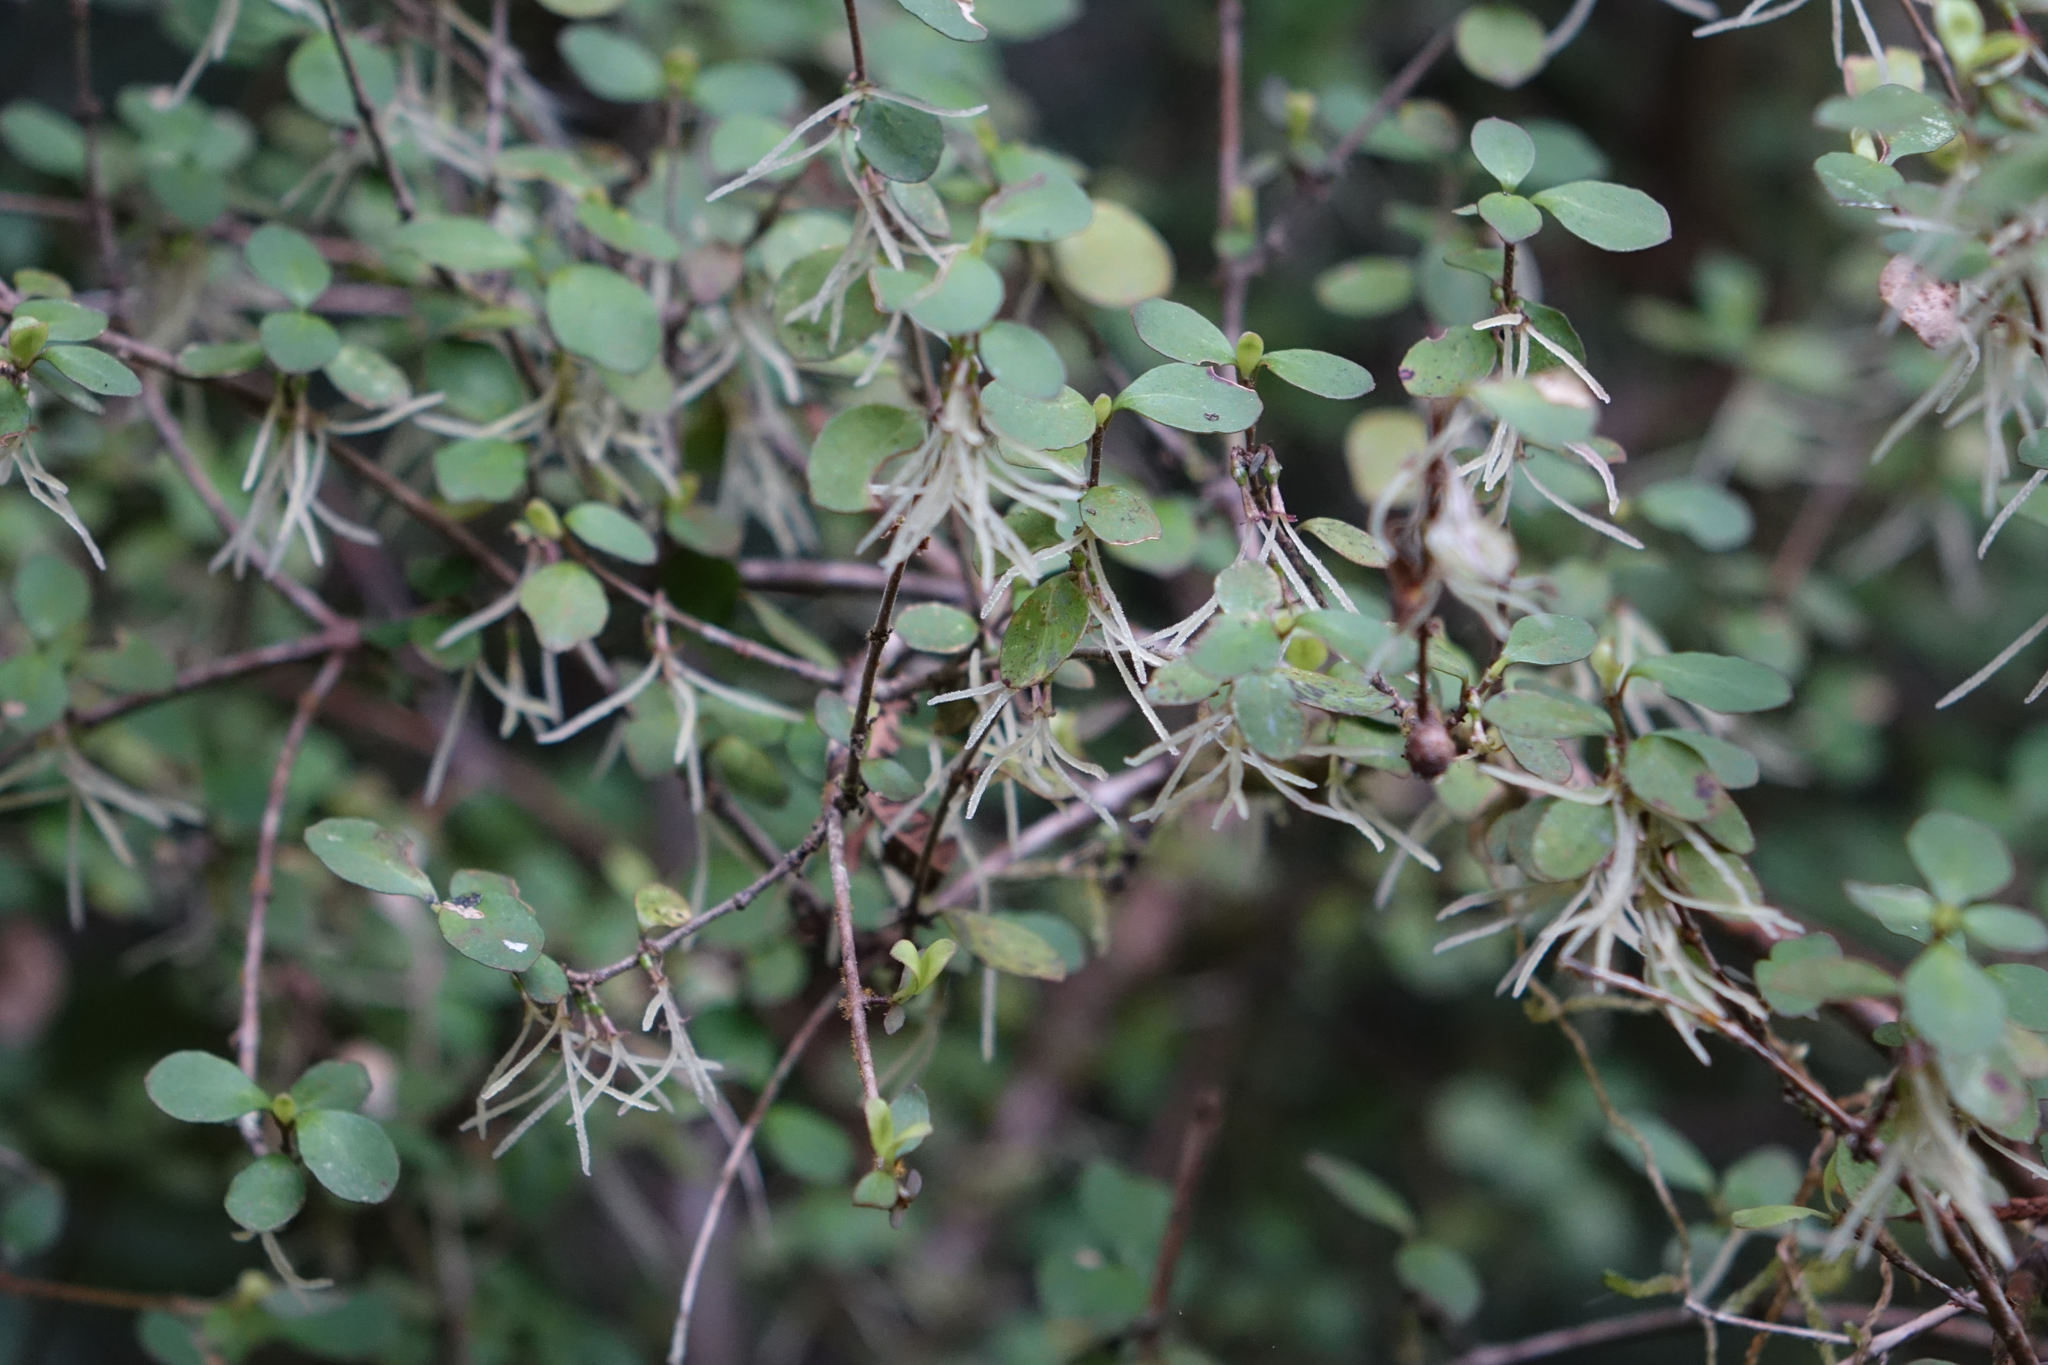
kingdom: Plantae
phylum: Tracheophyta
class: Magnoliopsida
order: Gentianales
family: Rubiaceae
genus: Coprosma
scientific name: Coprosma rhamnoides
